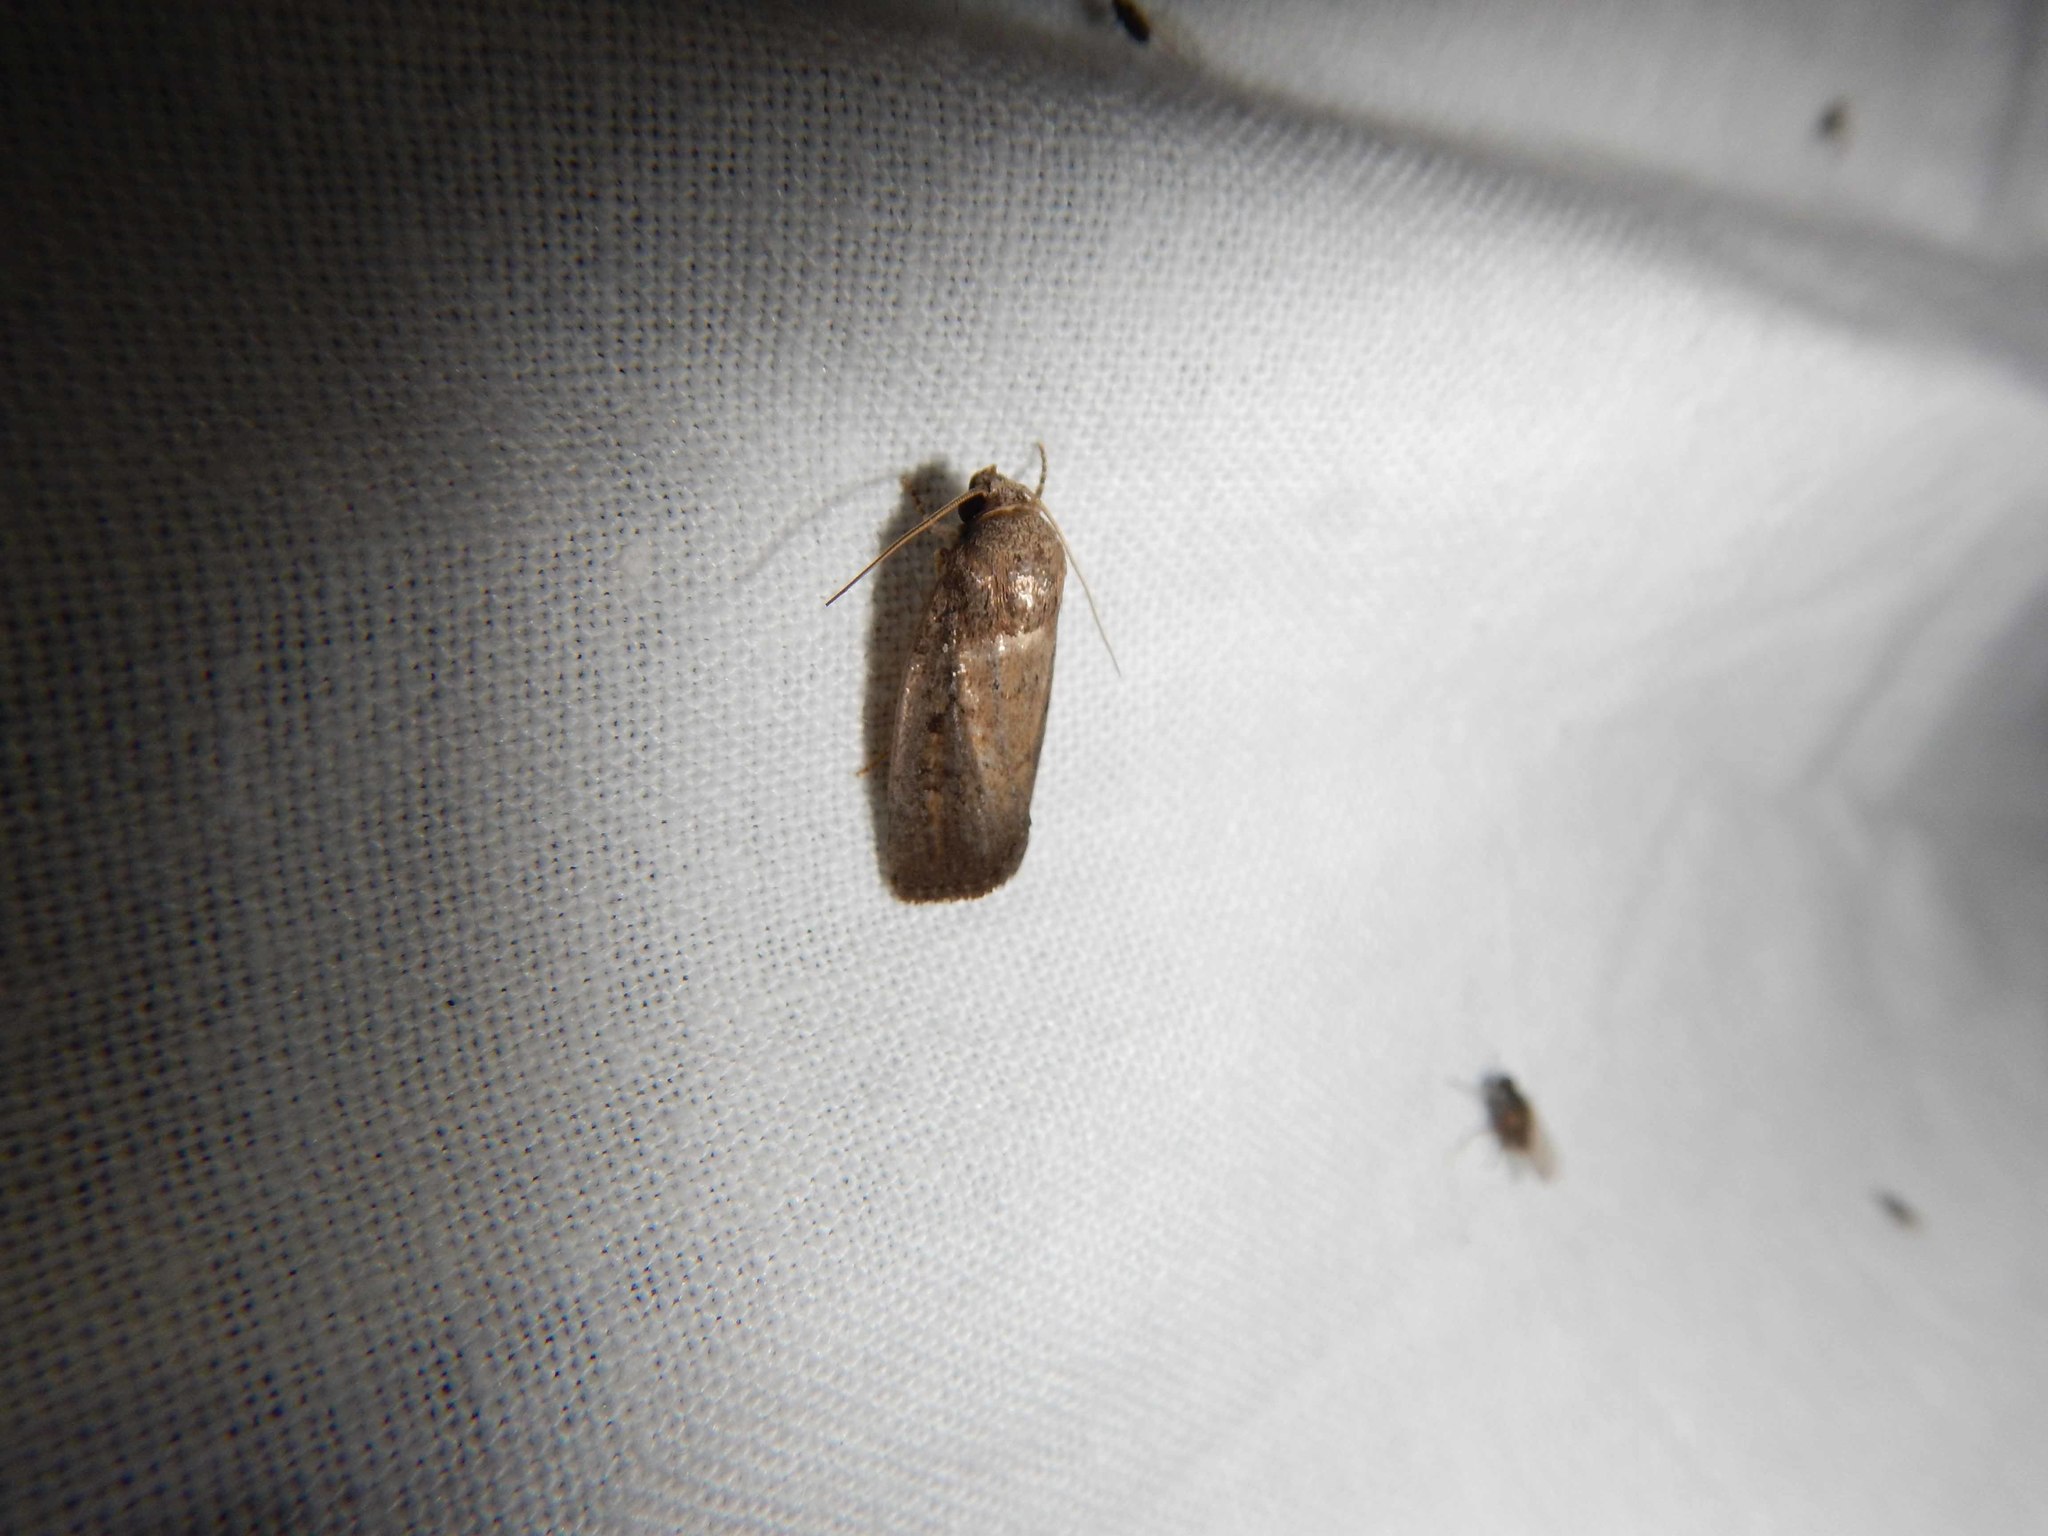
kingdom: Animalia
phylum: Arthropoda
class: Insecta
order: Lepidoptera
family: Noctuidae
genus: Athetis
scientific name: Athetis hospes
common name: Porter's rustic
